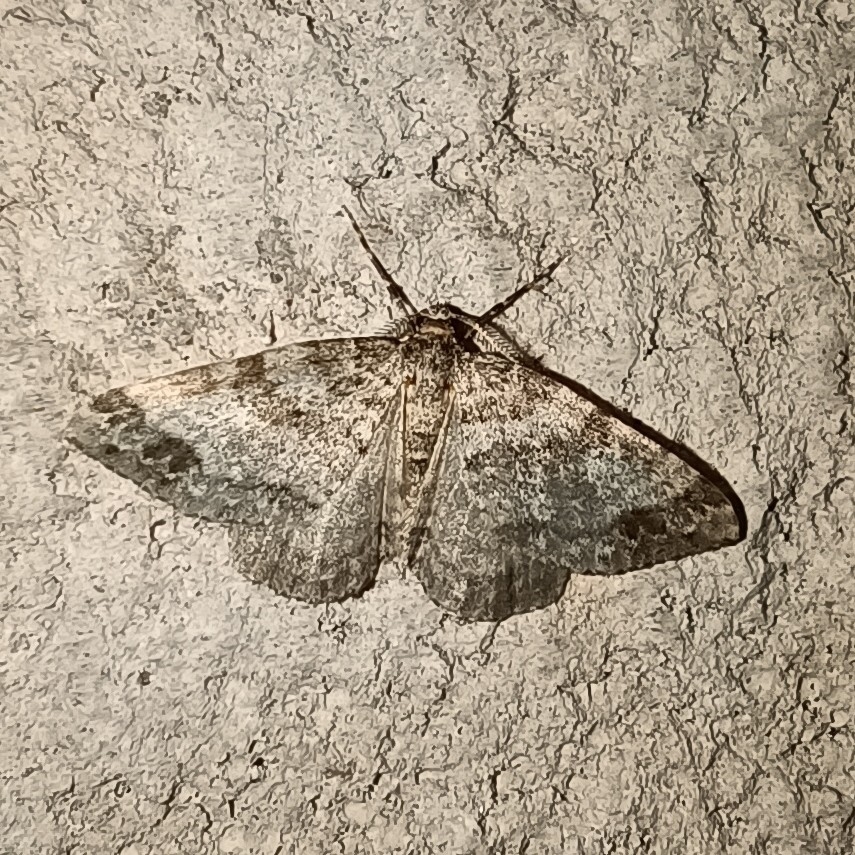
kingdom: Animalia
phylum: Arthropoda
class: Insecta
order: Lepidoptera
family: Geometridae
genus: Perizoma
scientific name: Perizoma didymata
